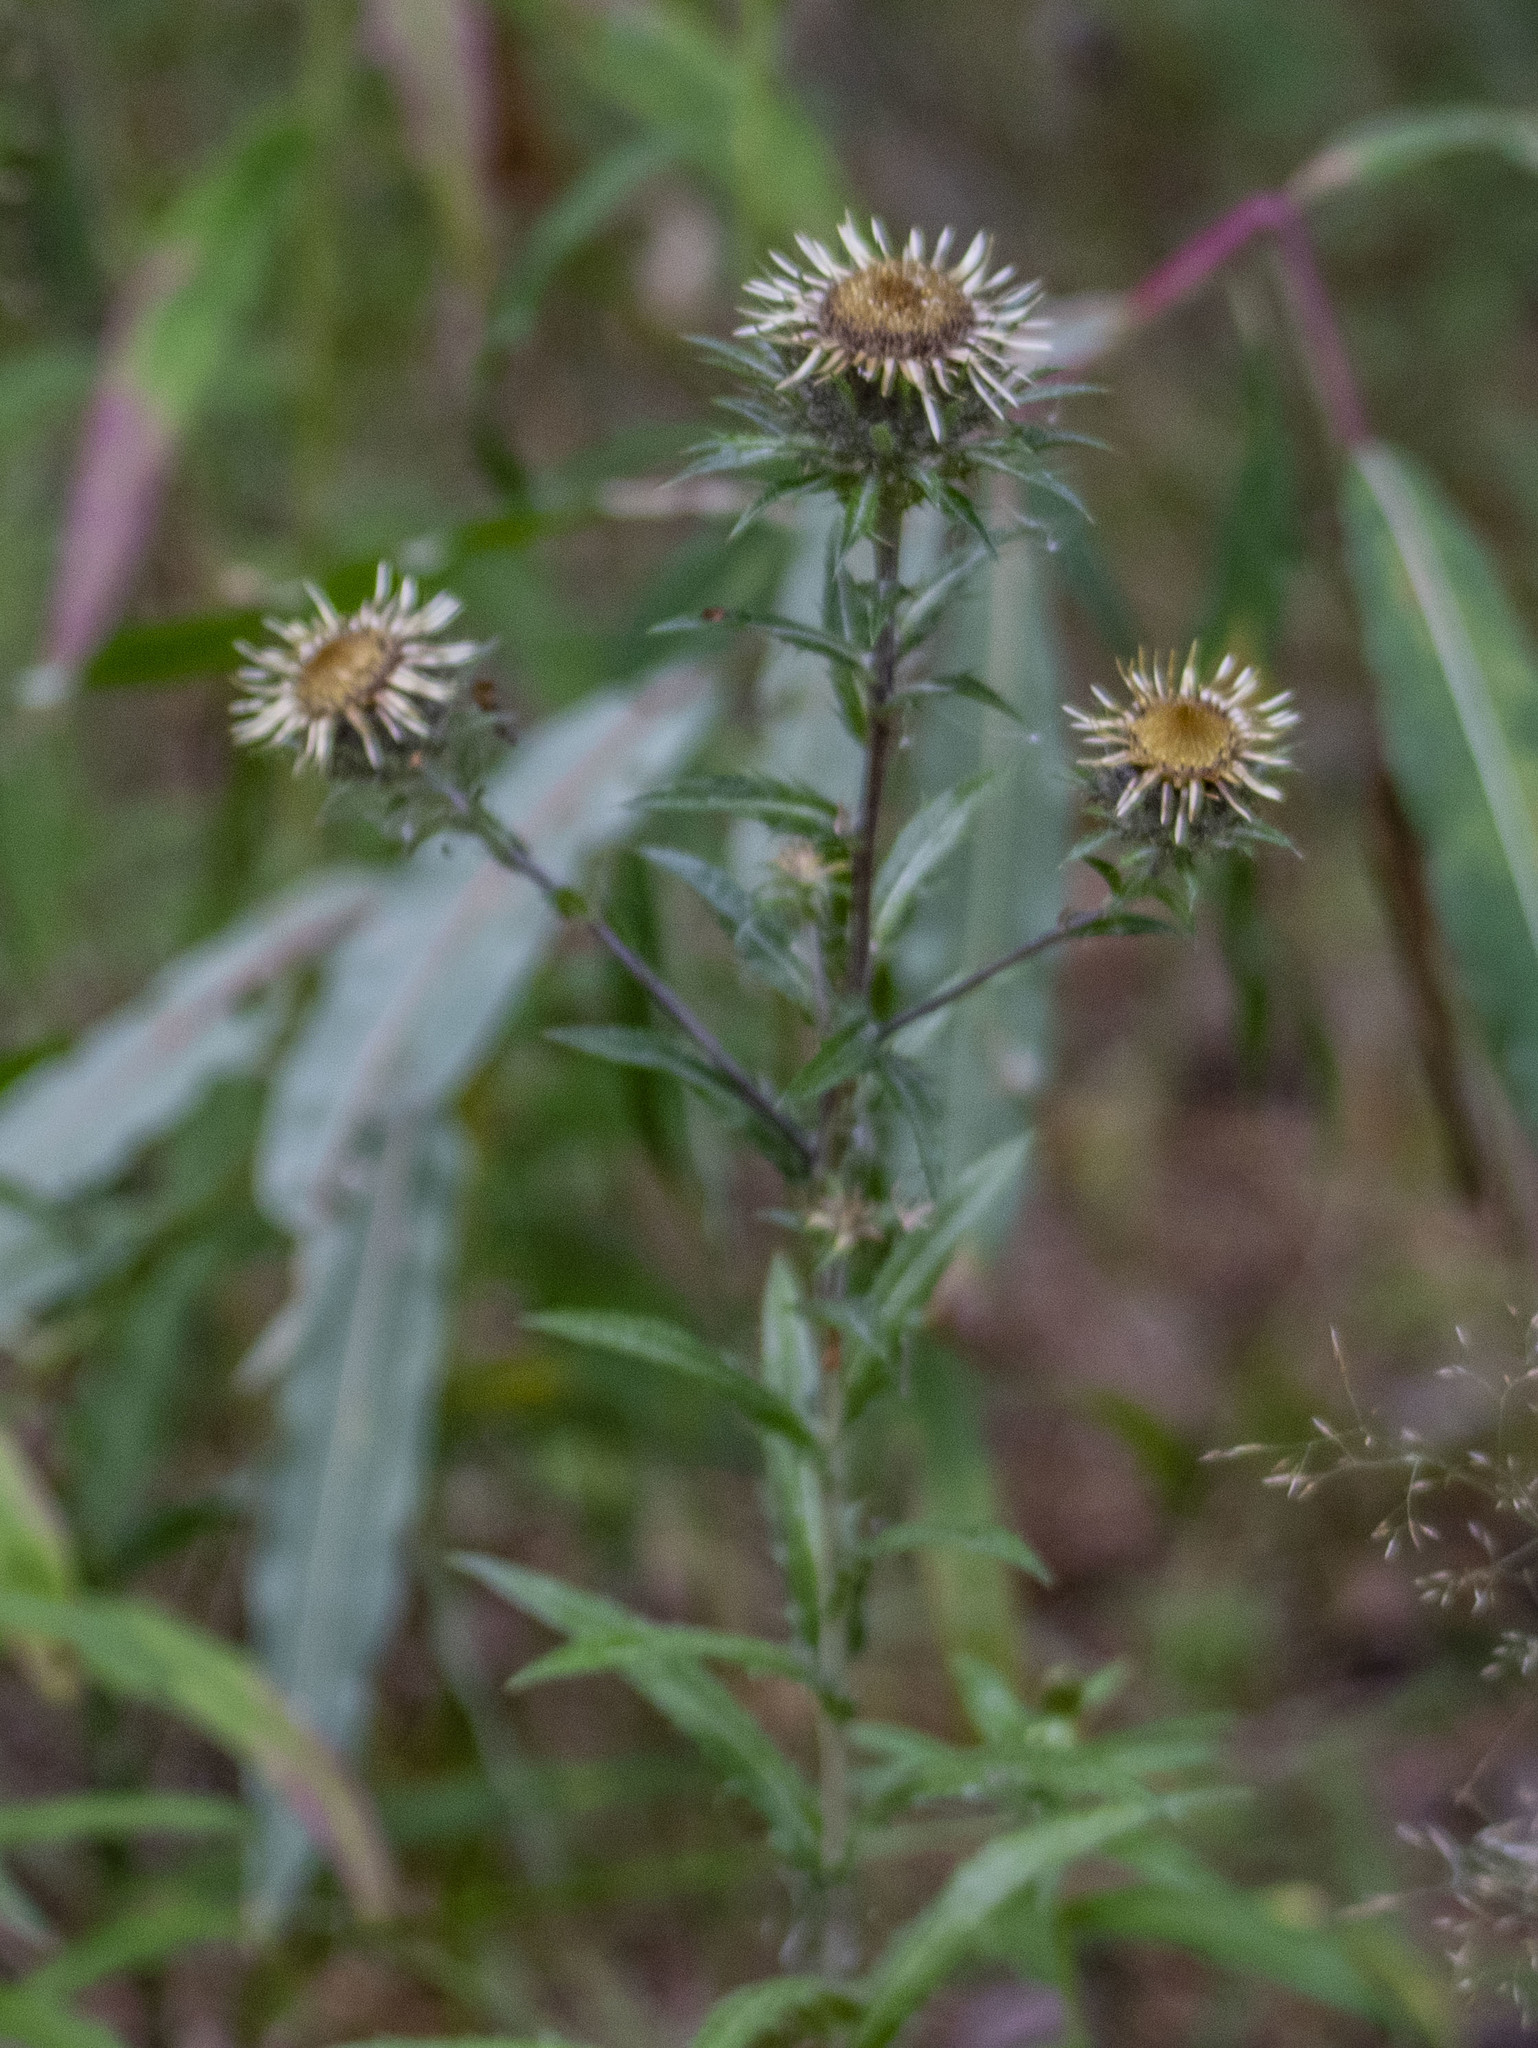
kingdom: Plantae
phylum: Tracheophyta
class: Magnoliopsida
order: Asterales
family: Asteraceae
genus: Carlina
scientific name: Carlina biebersteinii
